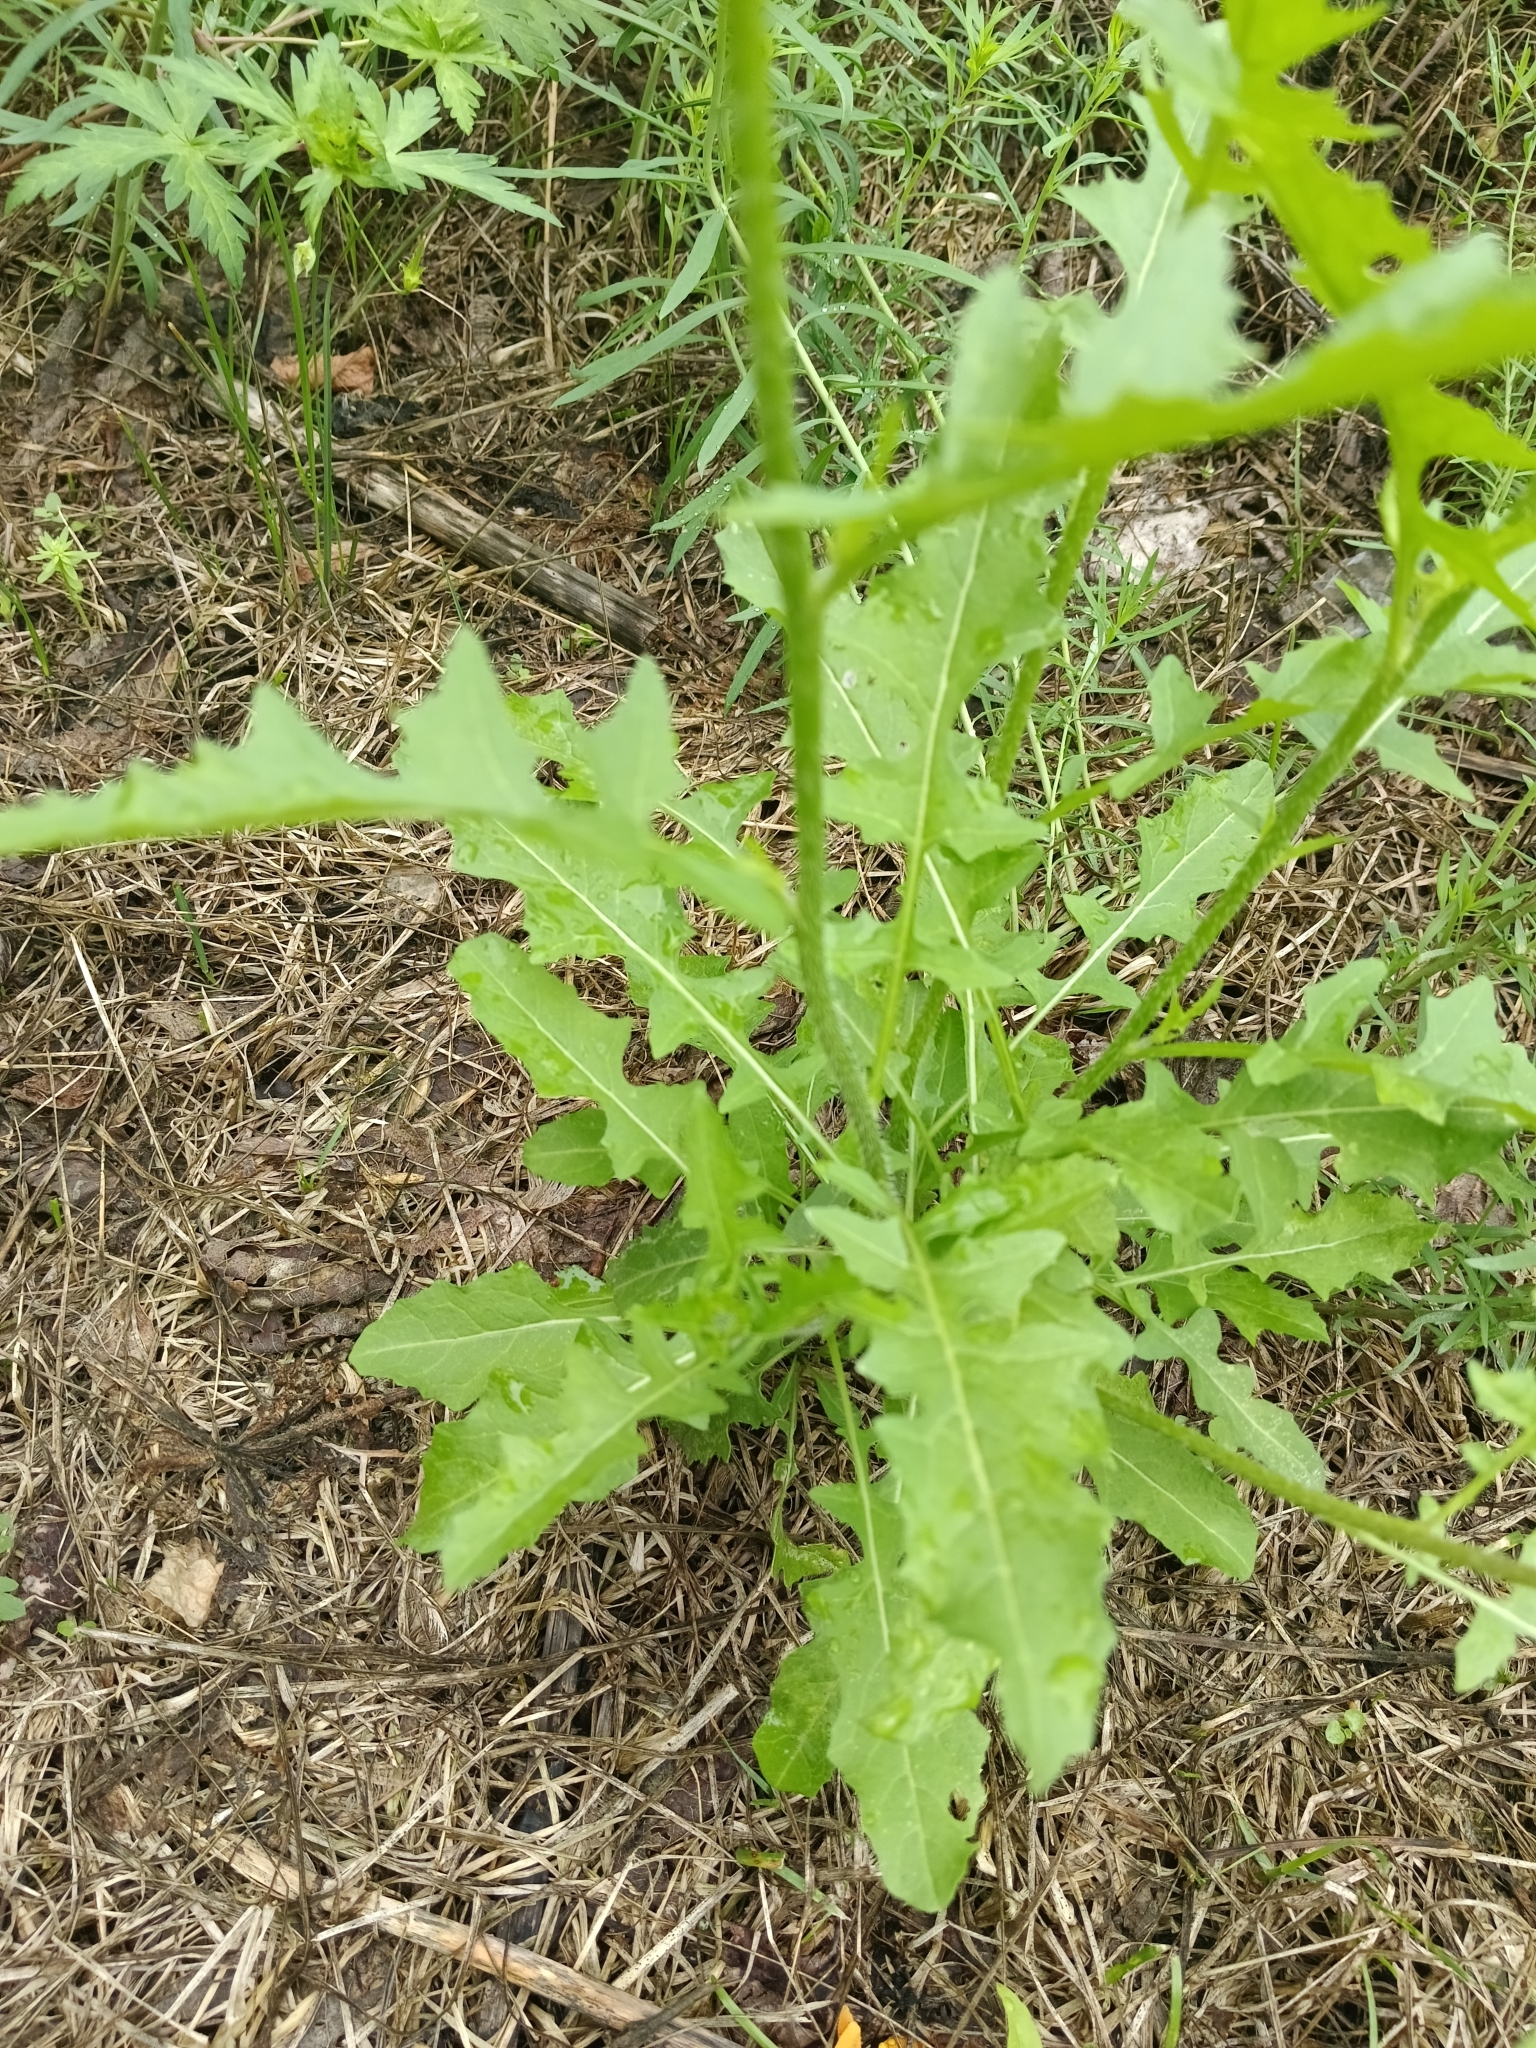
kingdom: Plantae
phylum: Tracheophyta
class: Magnoliopsida
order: Brassicales
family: Brassicaceae
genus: Sisymbrium
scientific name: Sisymbrium loeselii
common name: False london-rocket
